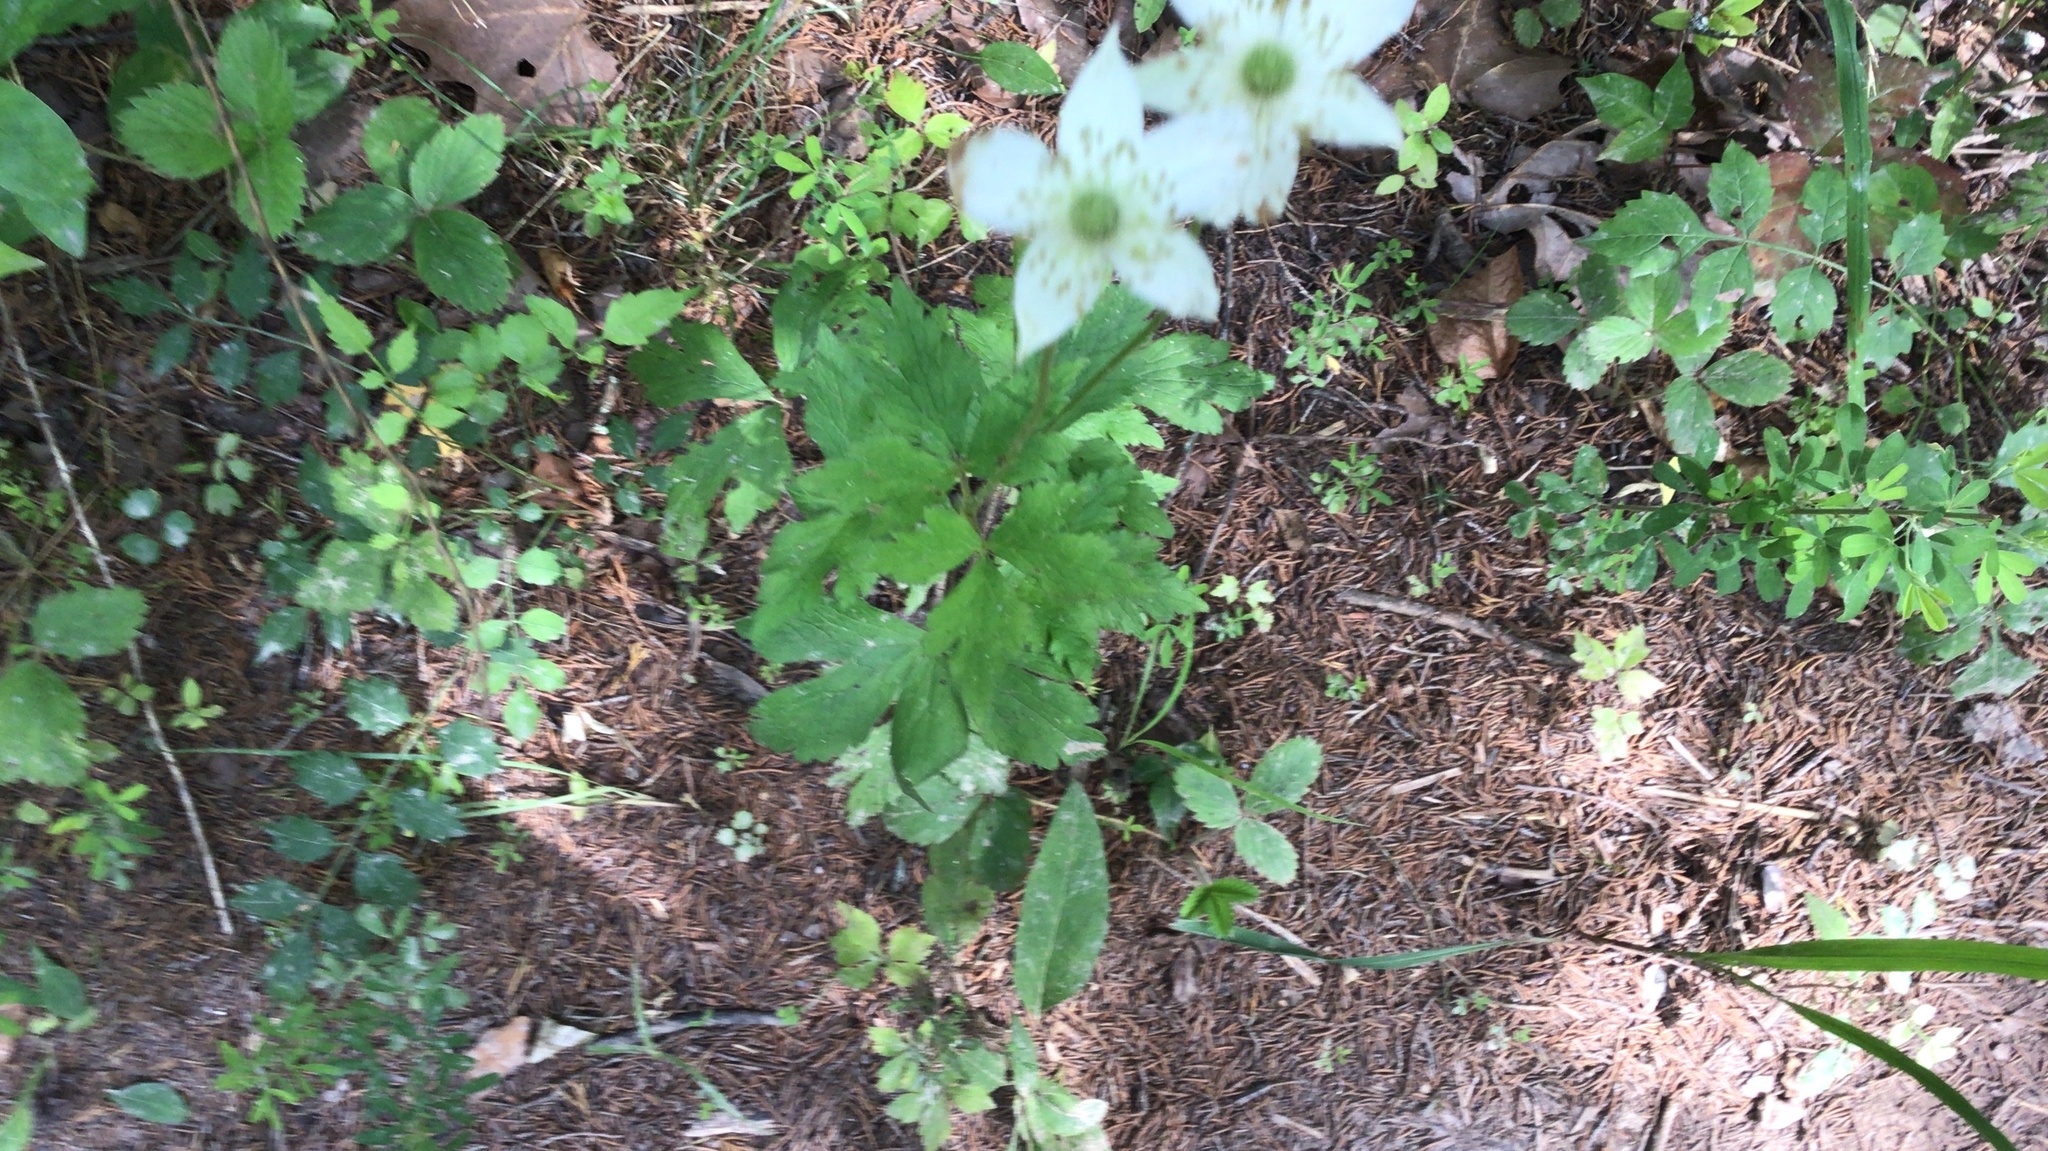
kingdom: Plantae
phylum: Tracheophyta
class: Magnoliopsida
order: Ranunculales
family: Ranunculaceae
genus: Anemone
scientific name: Anemone virginiana
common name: Tall anemone
